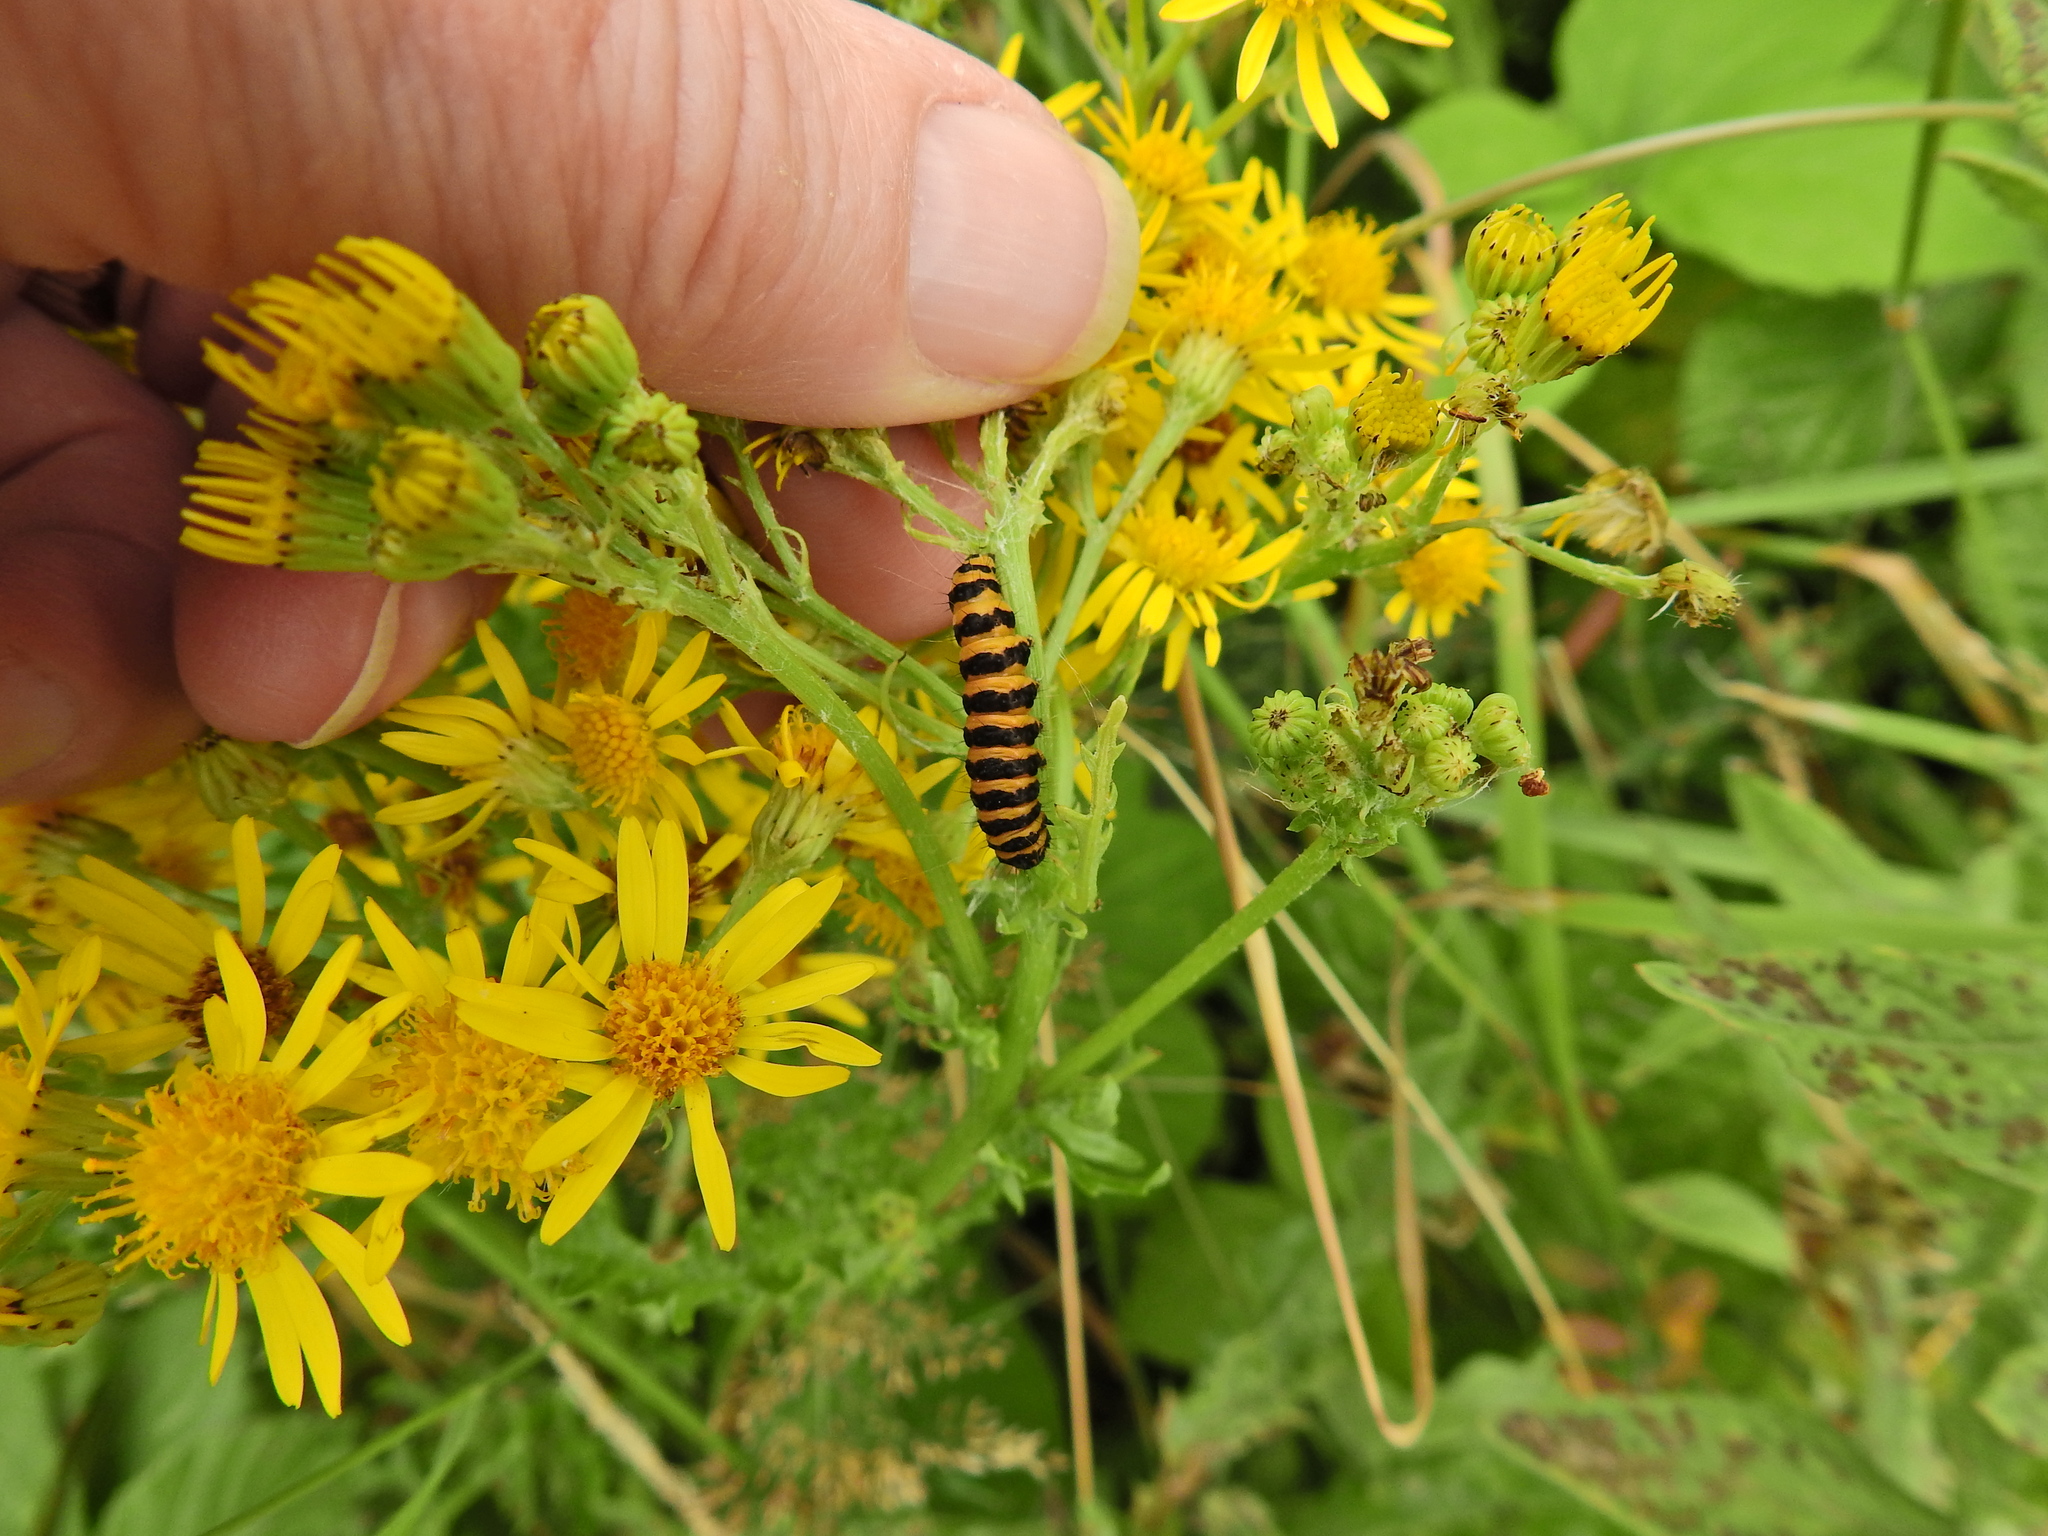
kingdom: Animalia
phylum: Arthropoda
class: Insecta
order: Lepidoptera
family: Erebidae
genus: Tyria
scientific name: Tyria jacobaeae
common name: Cinnabar
